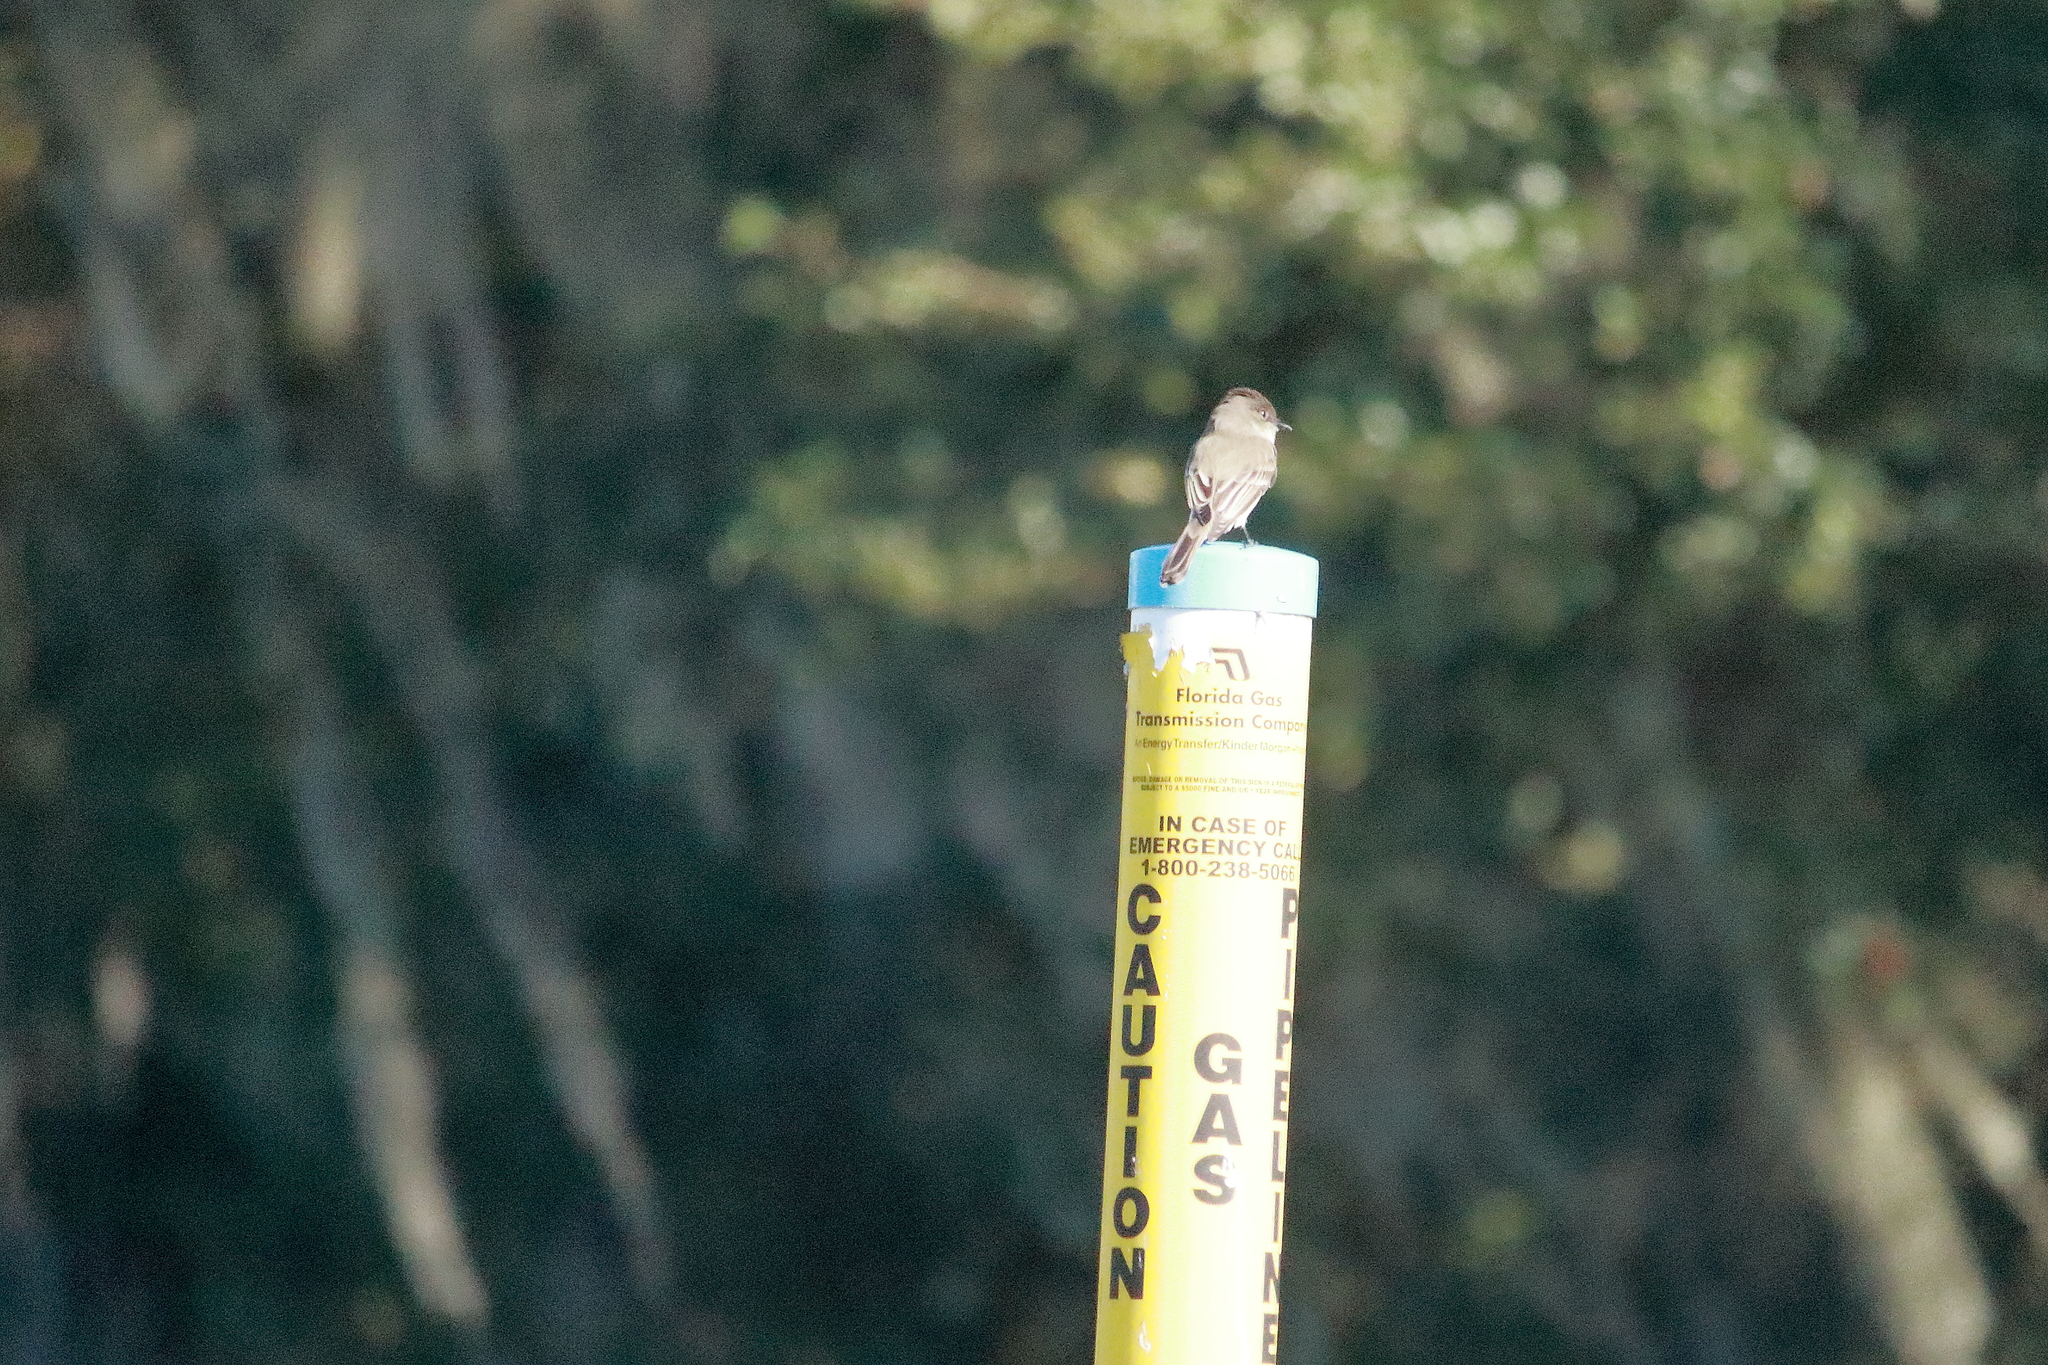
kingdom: Animalia
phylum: Chordata
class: Aves
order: Passeriformes
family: Tyrannidae
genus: Sayornis
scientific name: Sayornis phoebe
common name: Eastern phoebe
